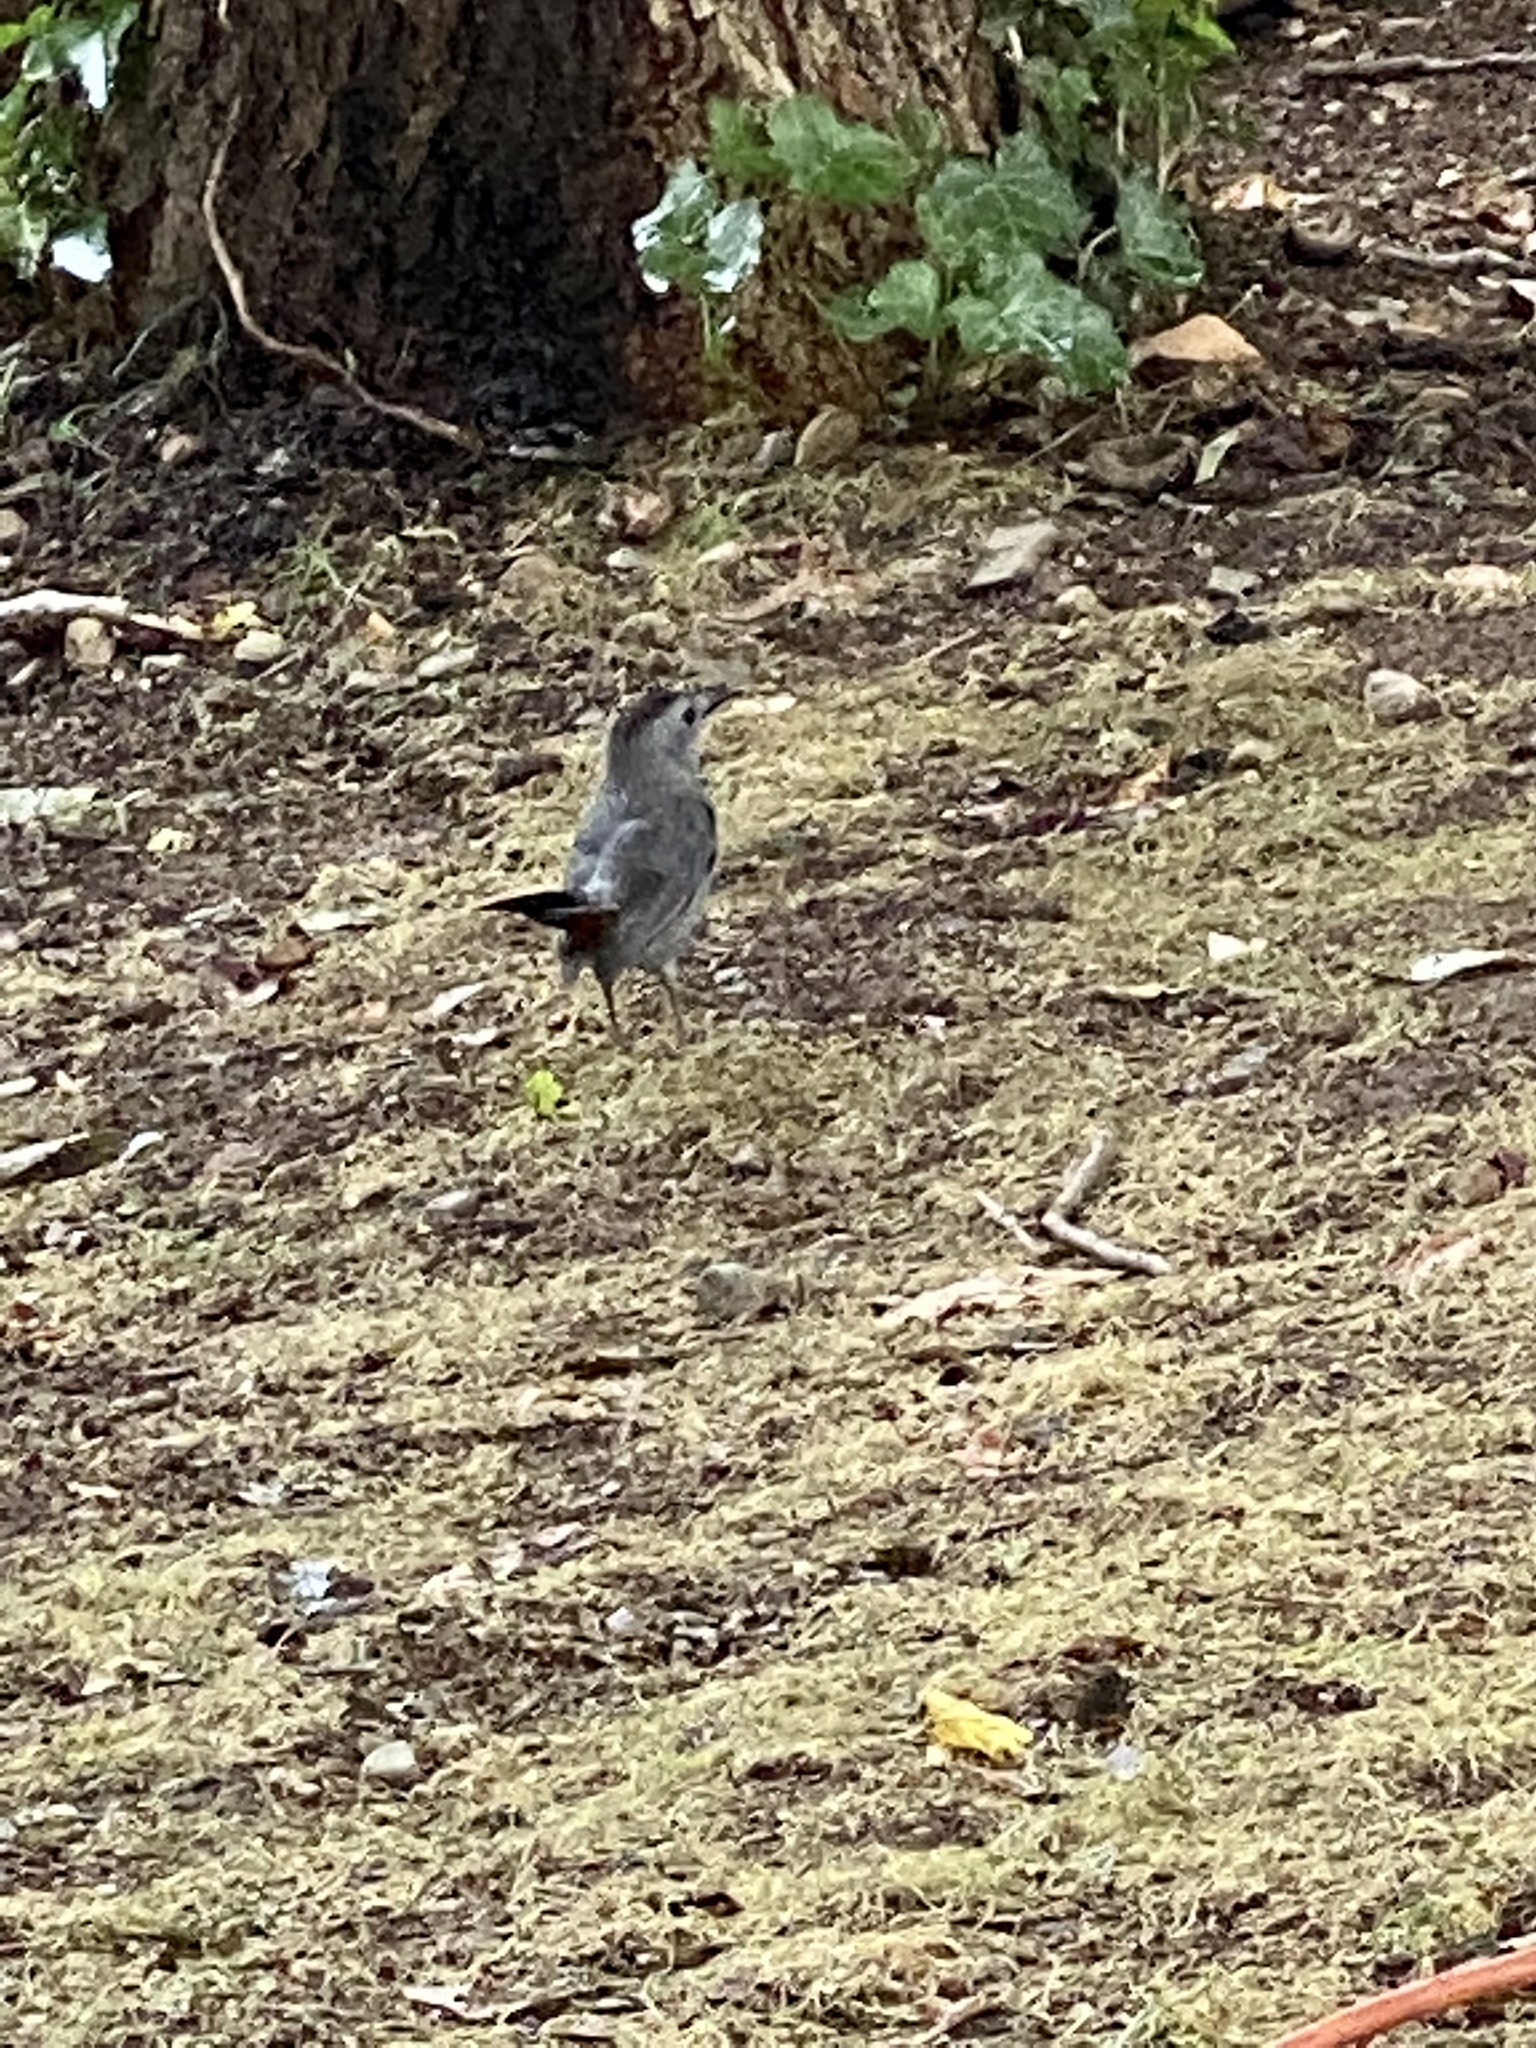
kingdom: Animalia
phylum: Chordata
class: Aves
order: Passeriformes
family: Mimidae
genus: Dumetella
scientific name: Dumetella carolinensis
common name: Gray catbird
